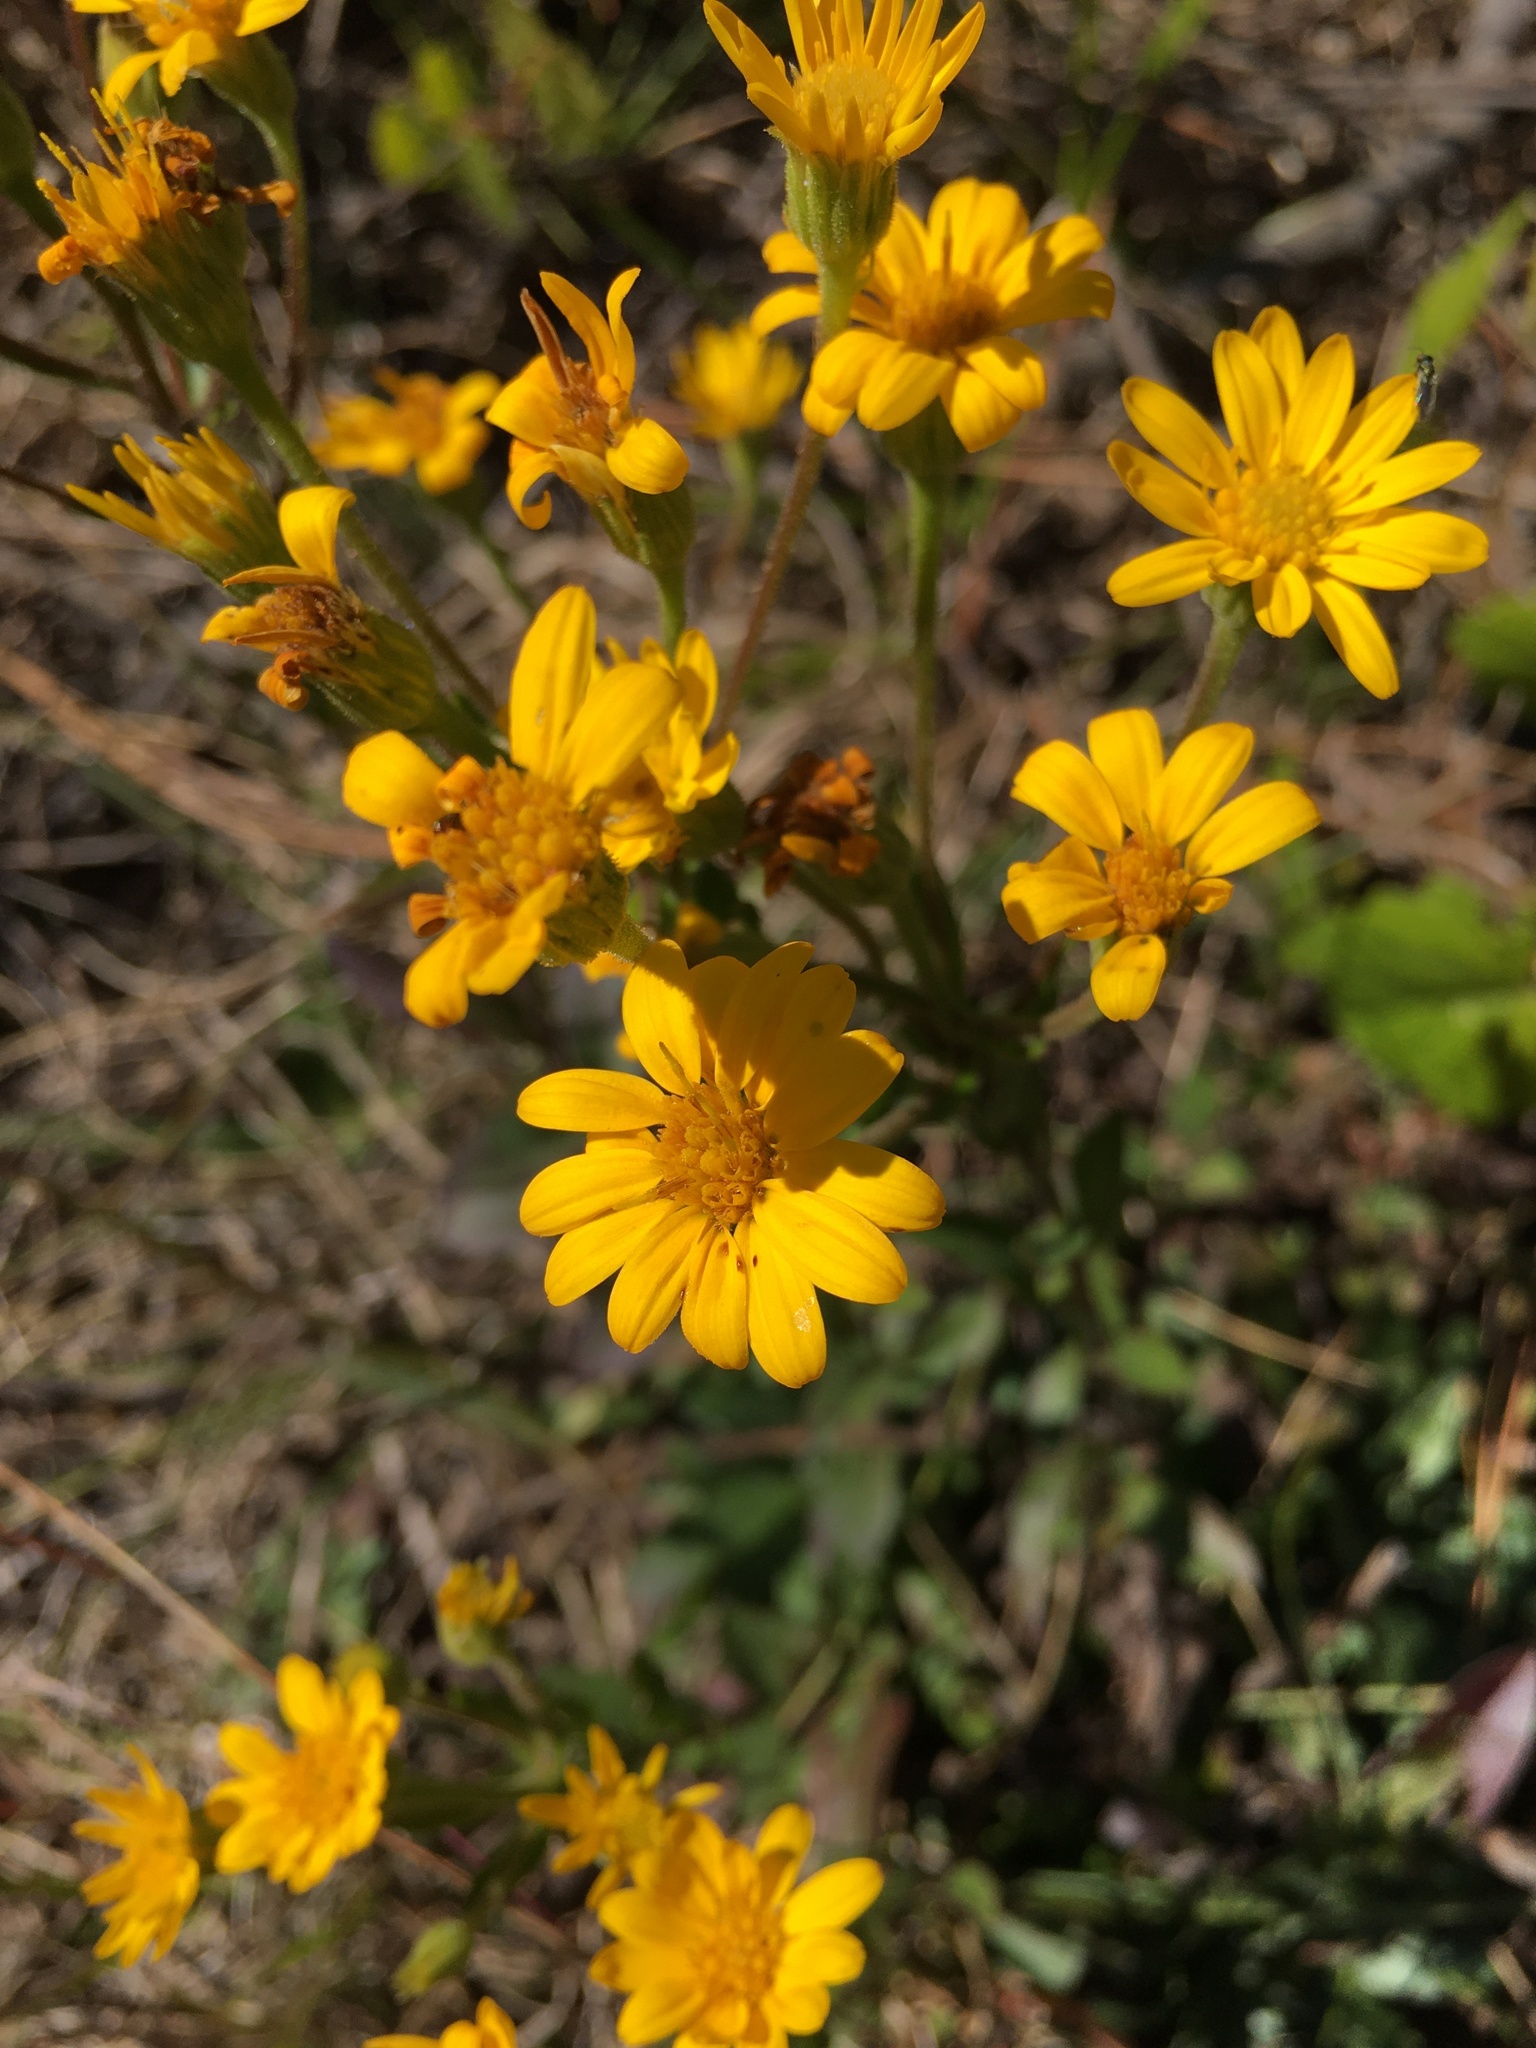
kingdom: Plantae
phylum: Tracheophyta
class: Magnoliopsida
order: Asterales
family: Asteraceae
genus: Chrysopsis
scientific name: Chrysopsis mariana
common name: Maryland golden-aster
